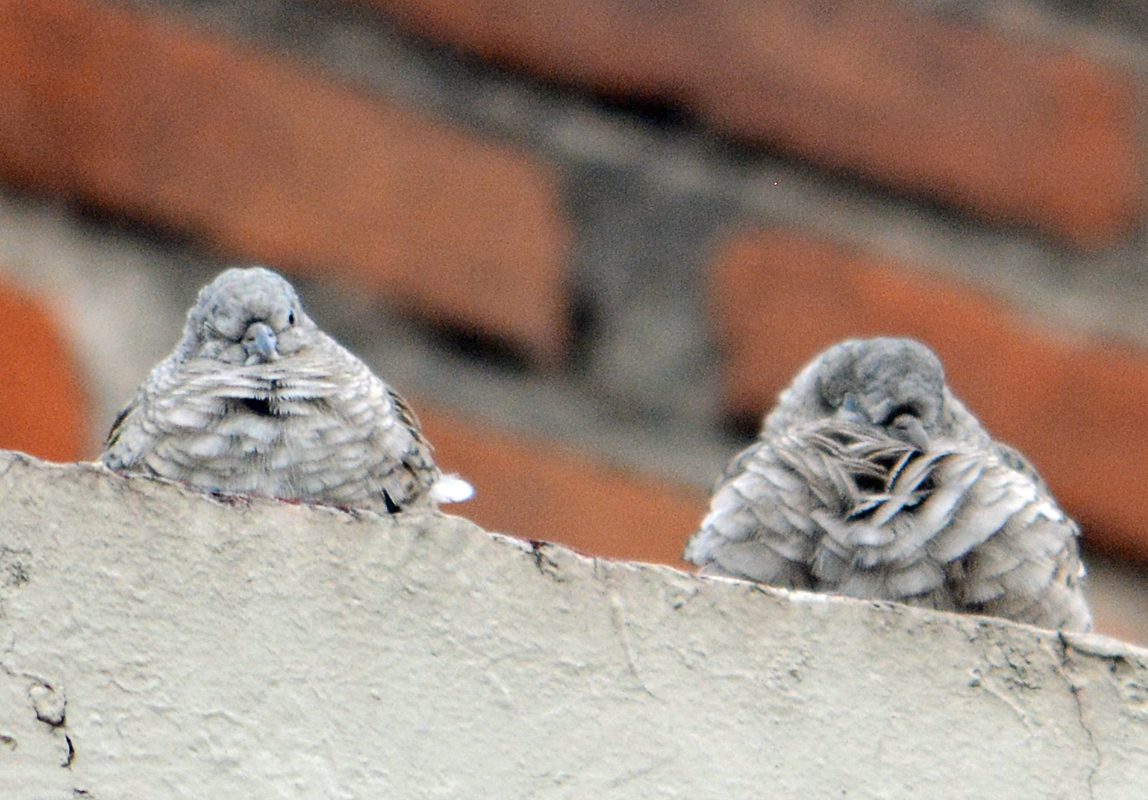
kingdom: Animalia
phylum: Chordata
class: Aves
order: Columbiformes
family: Columbidae
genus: Columbina
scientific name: Columbina inca
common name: Inca dove
